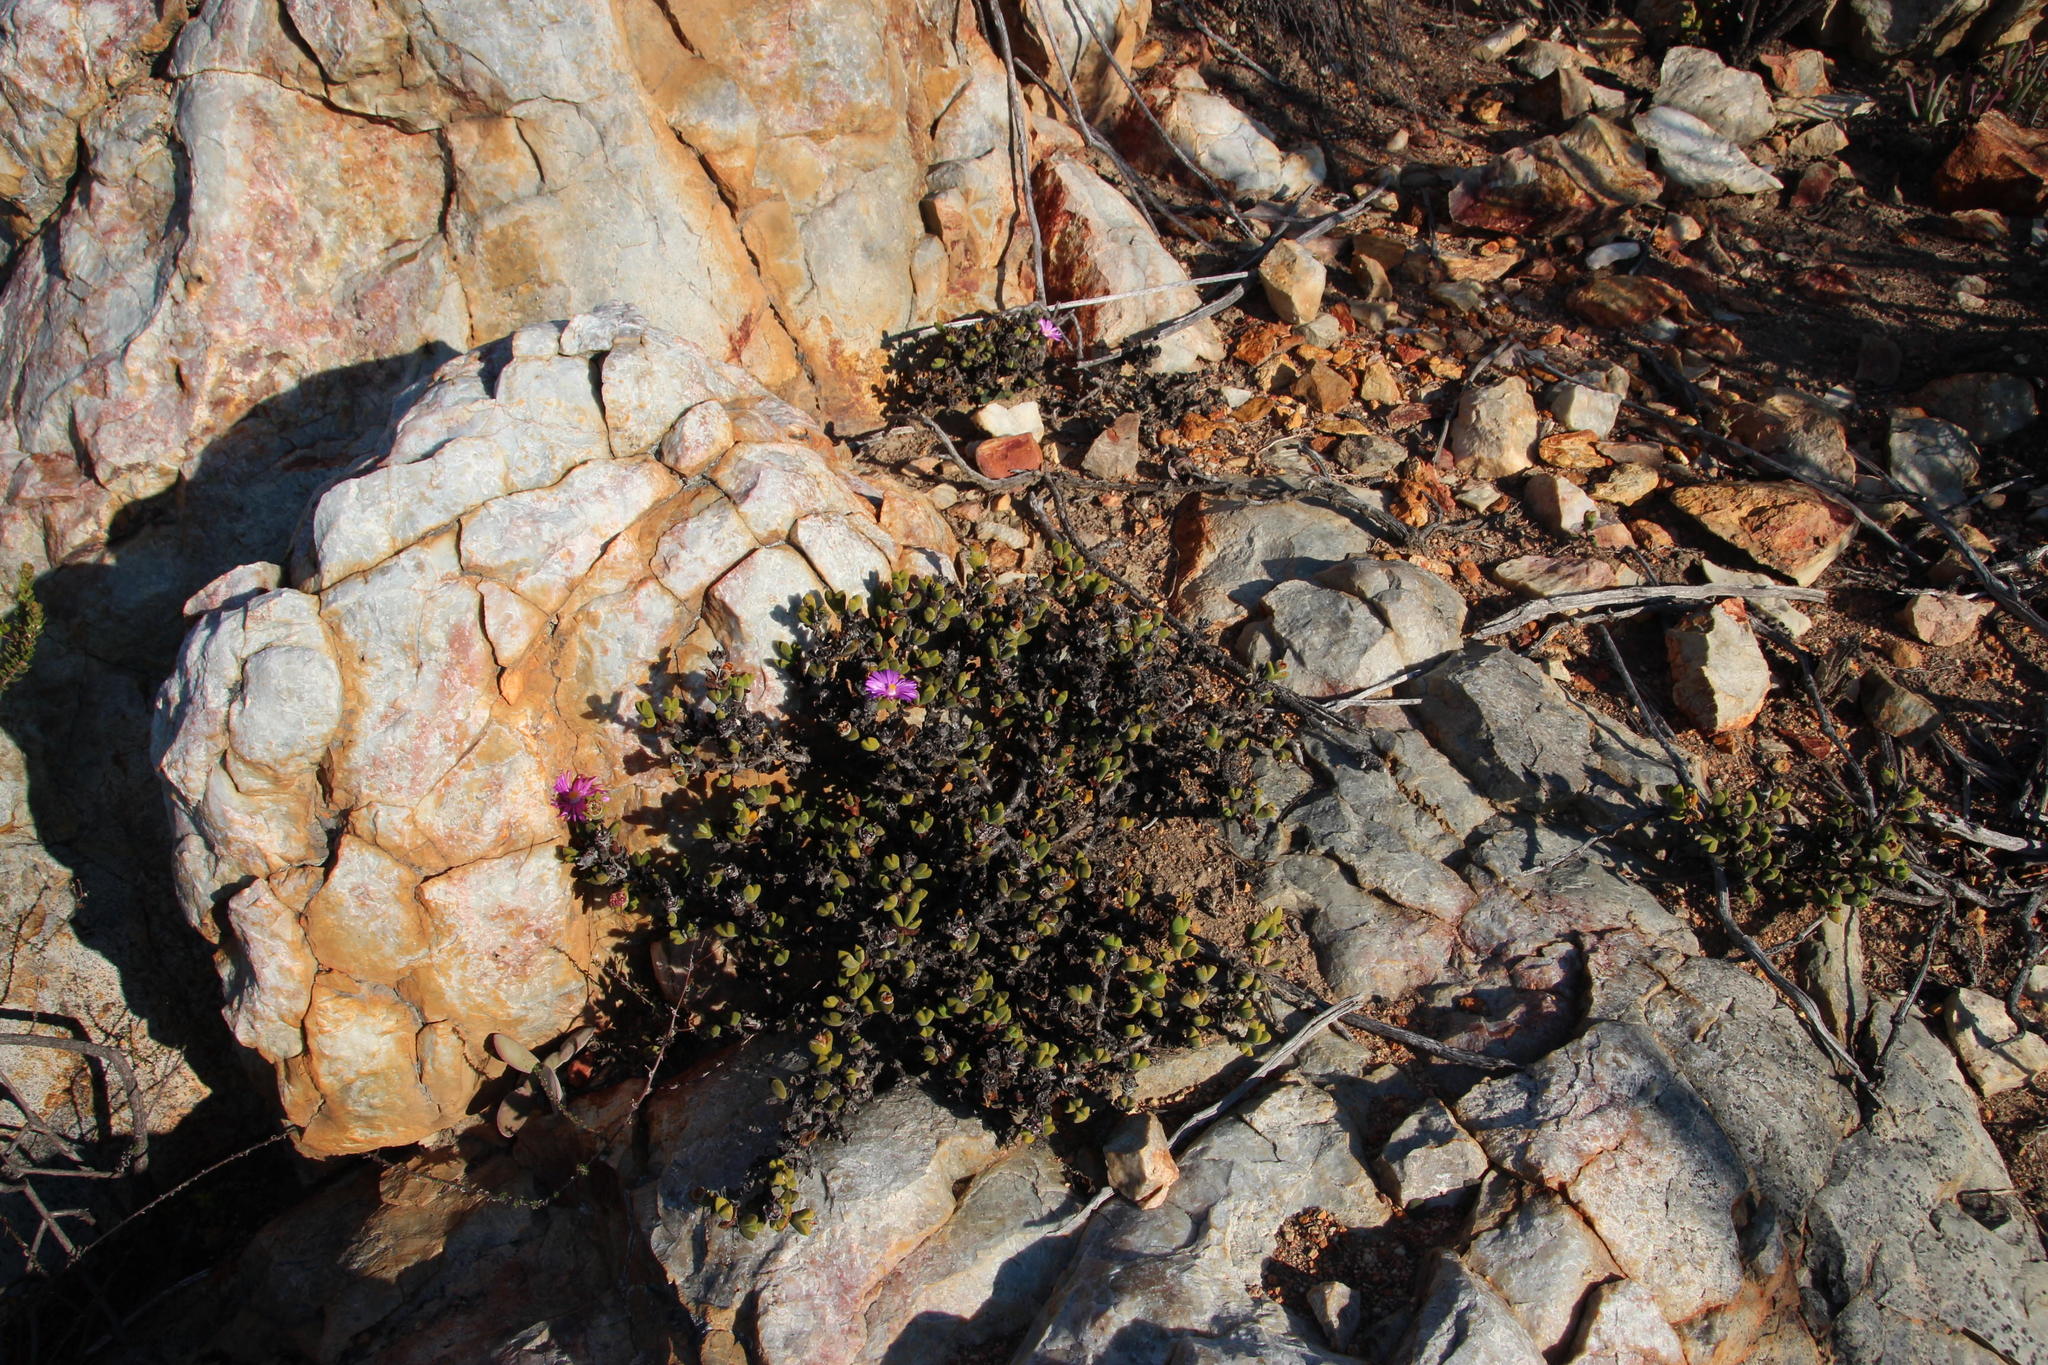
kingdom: Plantae
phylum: Tracheophyta
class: Magnoliopsida
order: Caryophyllales
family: Aizoaceae
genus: Braunsia
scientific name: Braunsia apiculata
